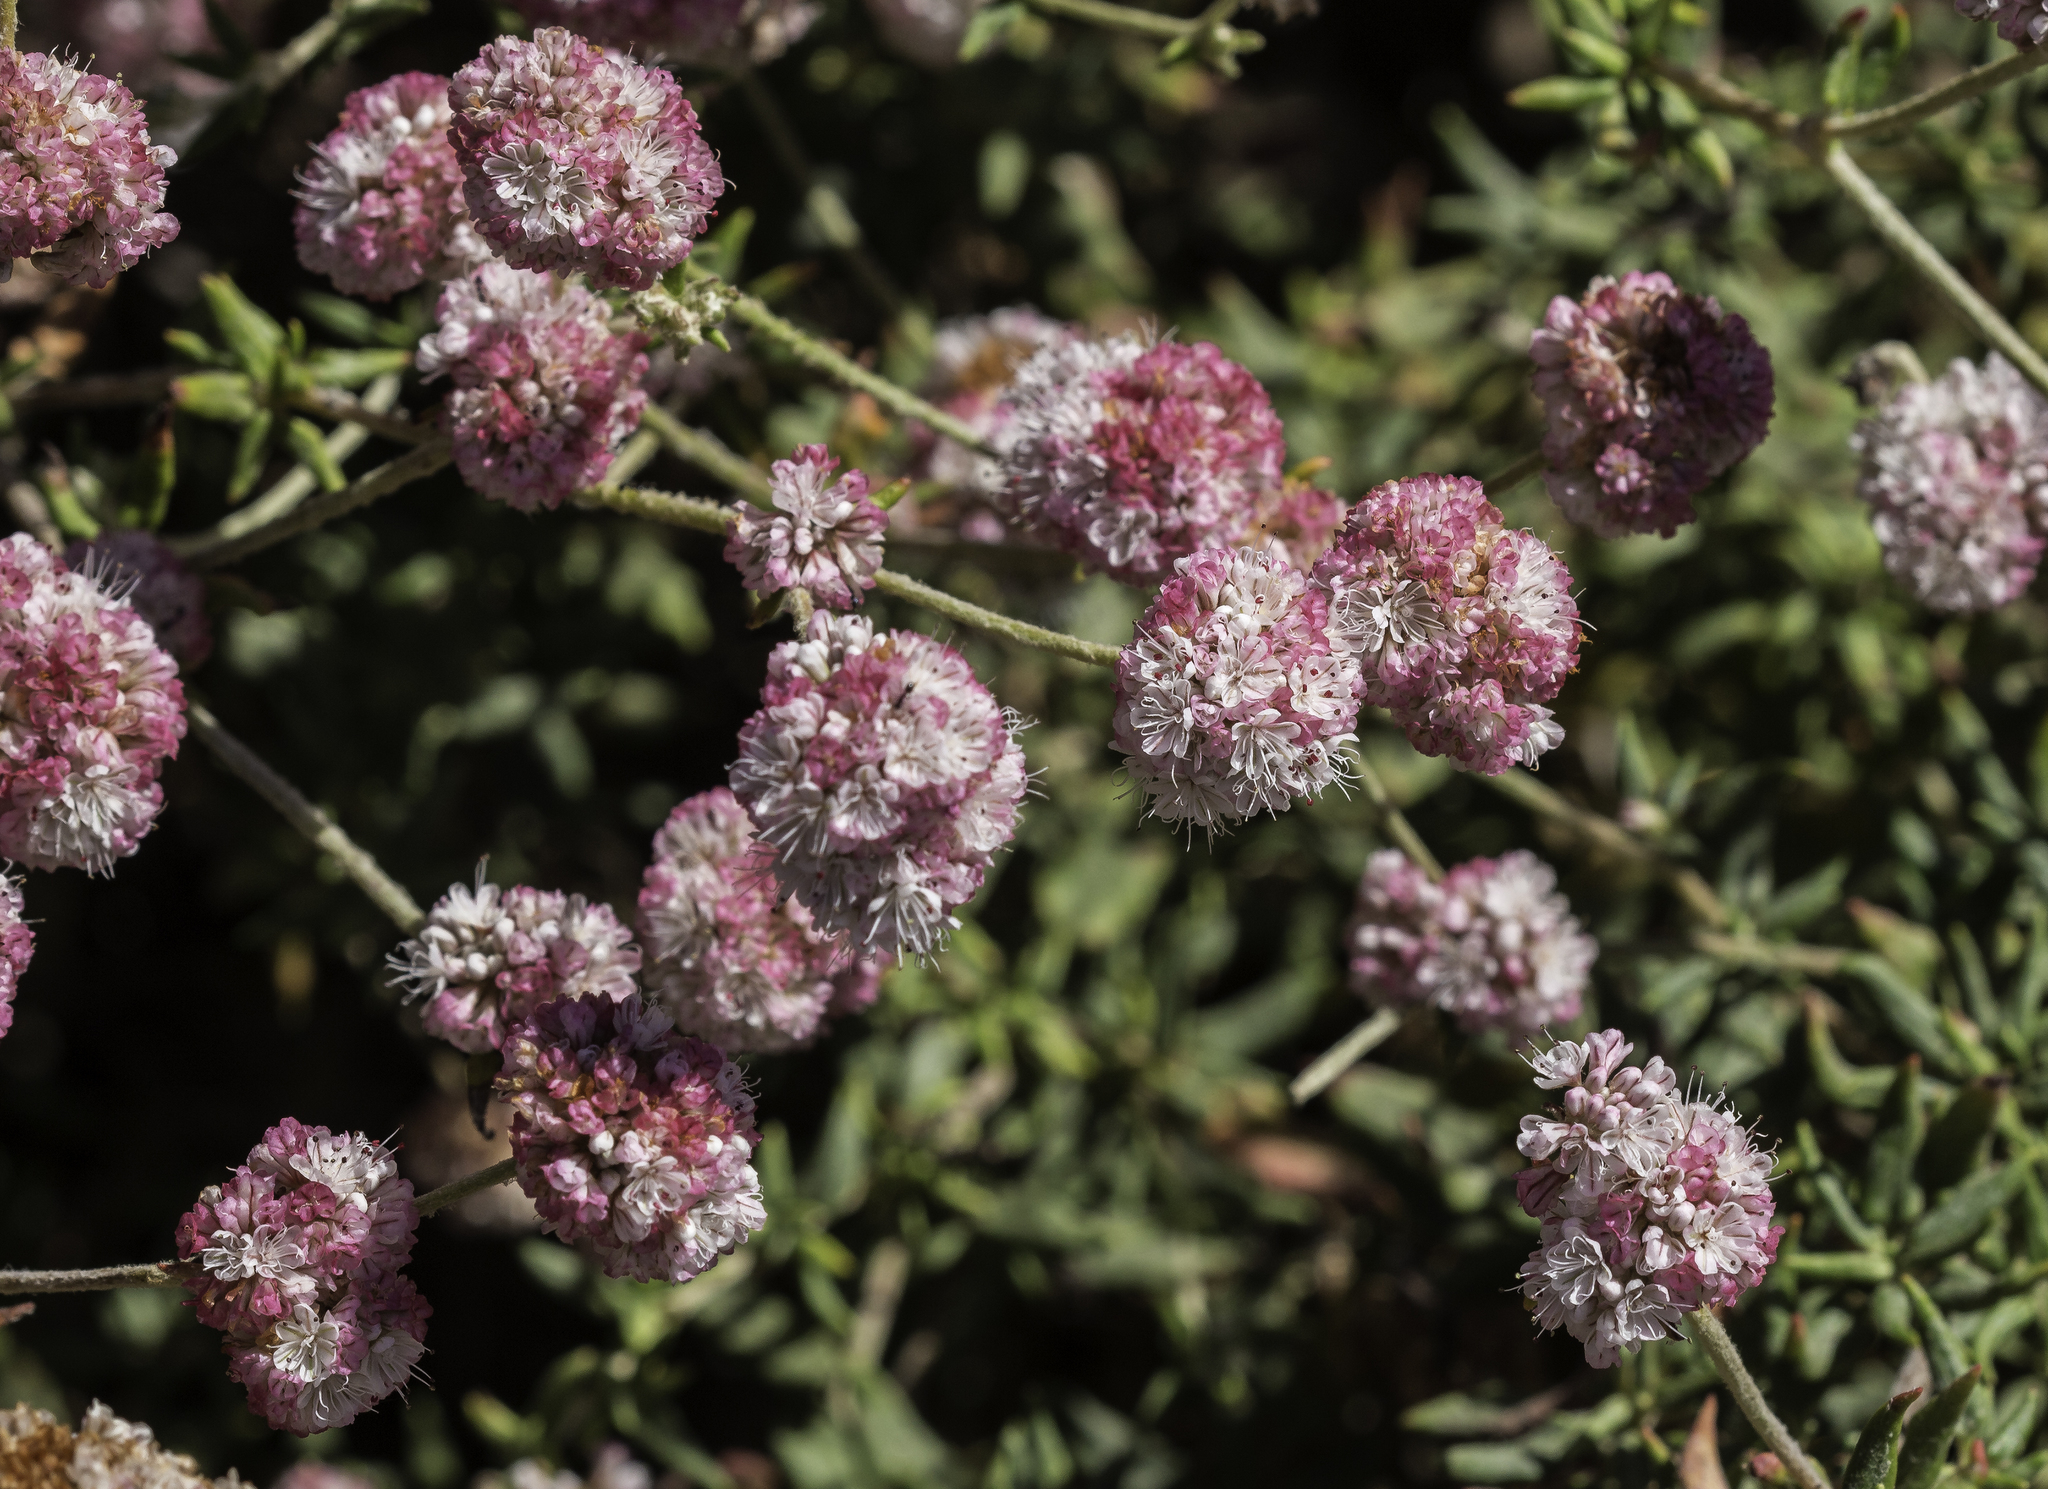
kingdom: Plantae
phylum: Tracheophyta
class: Magnoliopsida
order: Caryophyllales
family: Polygonaceae
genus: Eriogonum
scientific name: Eriogonum parvifolium
